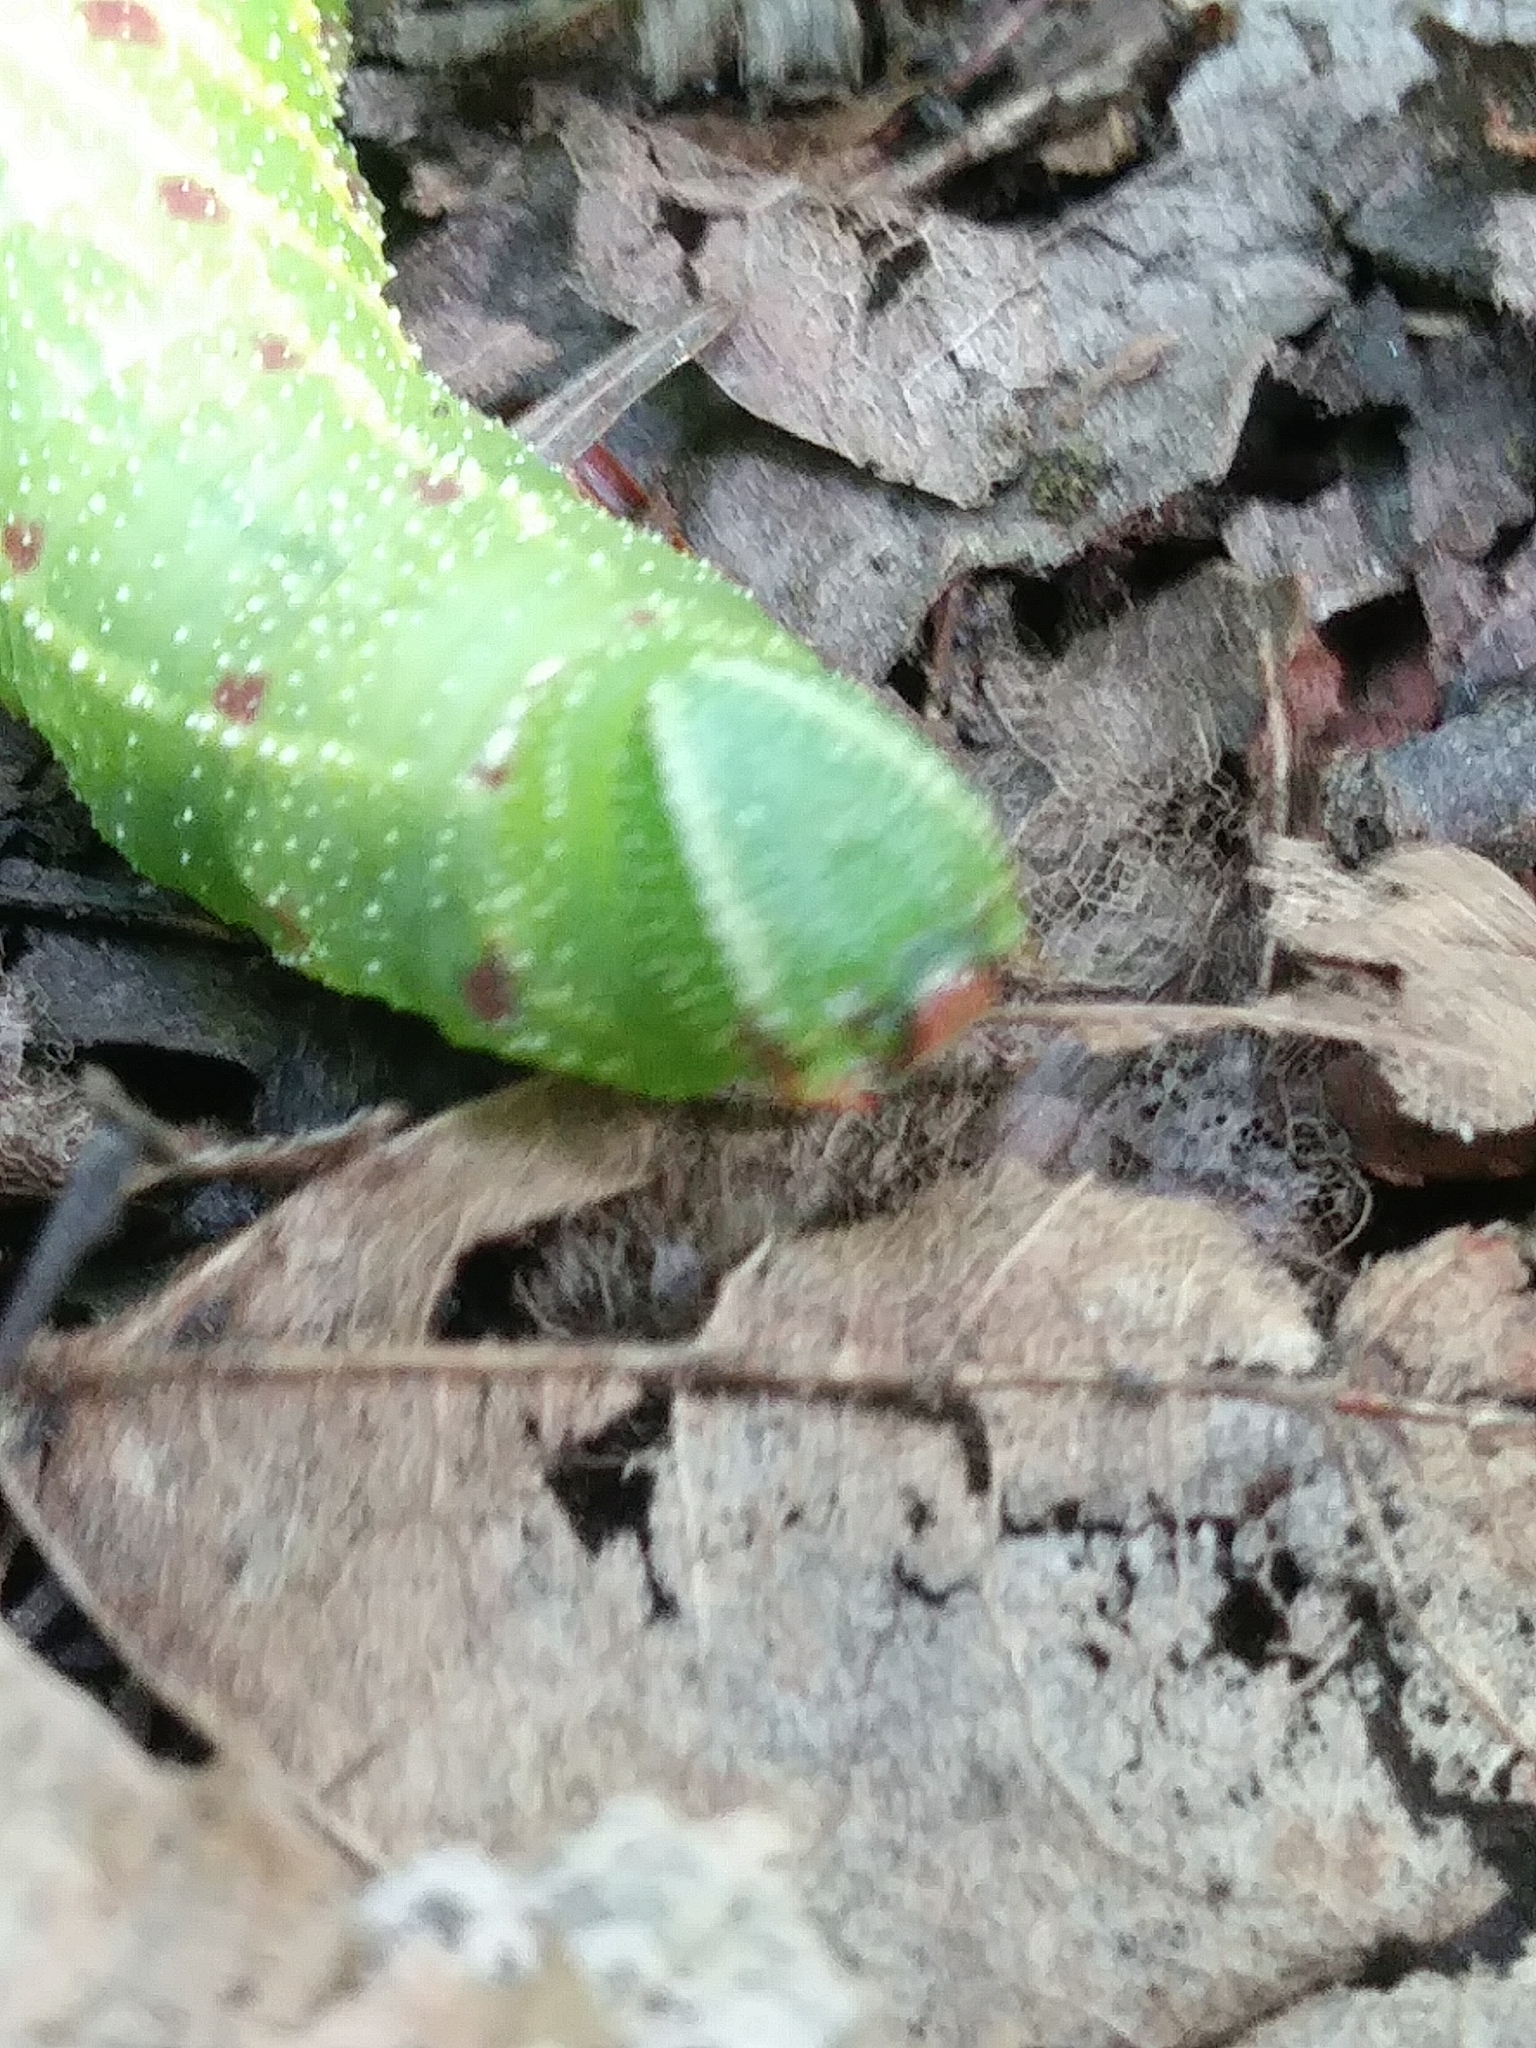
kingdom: Animalia
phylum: Arthropoda
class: Insecta
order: Lepidoptera
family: Sphingidae
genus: Paonias
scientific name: Paonias excaecata
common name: Blind-eyed sphinx
